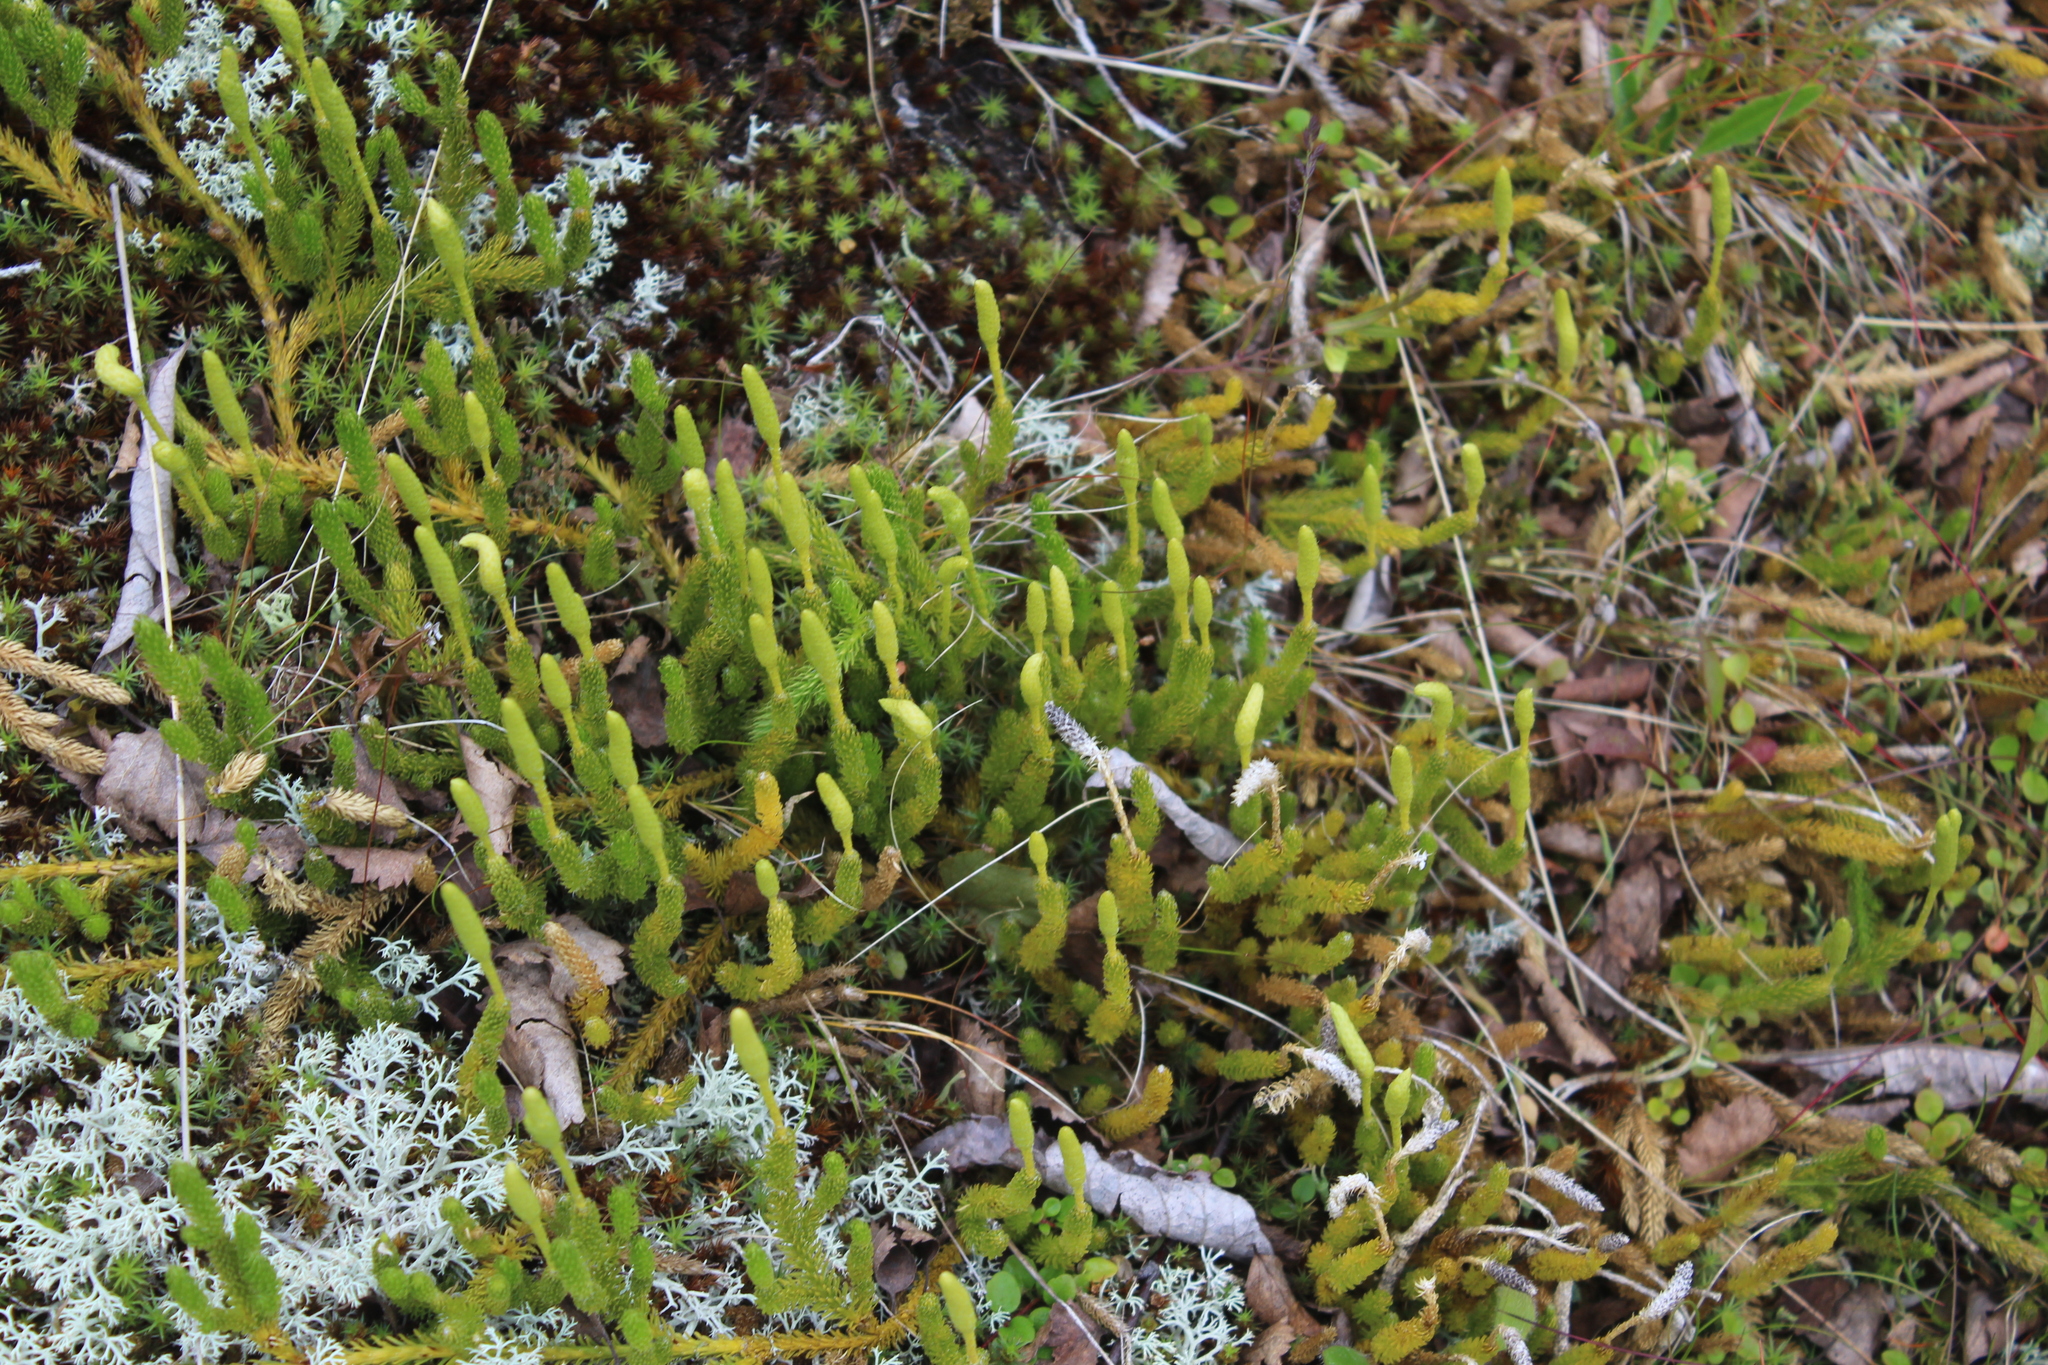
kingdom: Plantae
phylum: Tracheophyta
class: Lycopodiopsida
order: Lycopodiales
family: Lycopodiaceae
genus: Lycopodium
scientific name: Lycopodium lagopus
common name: One-cone clubmoss
